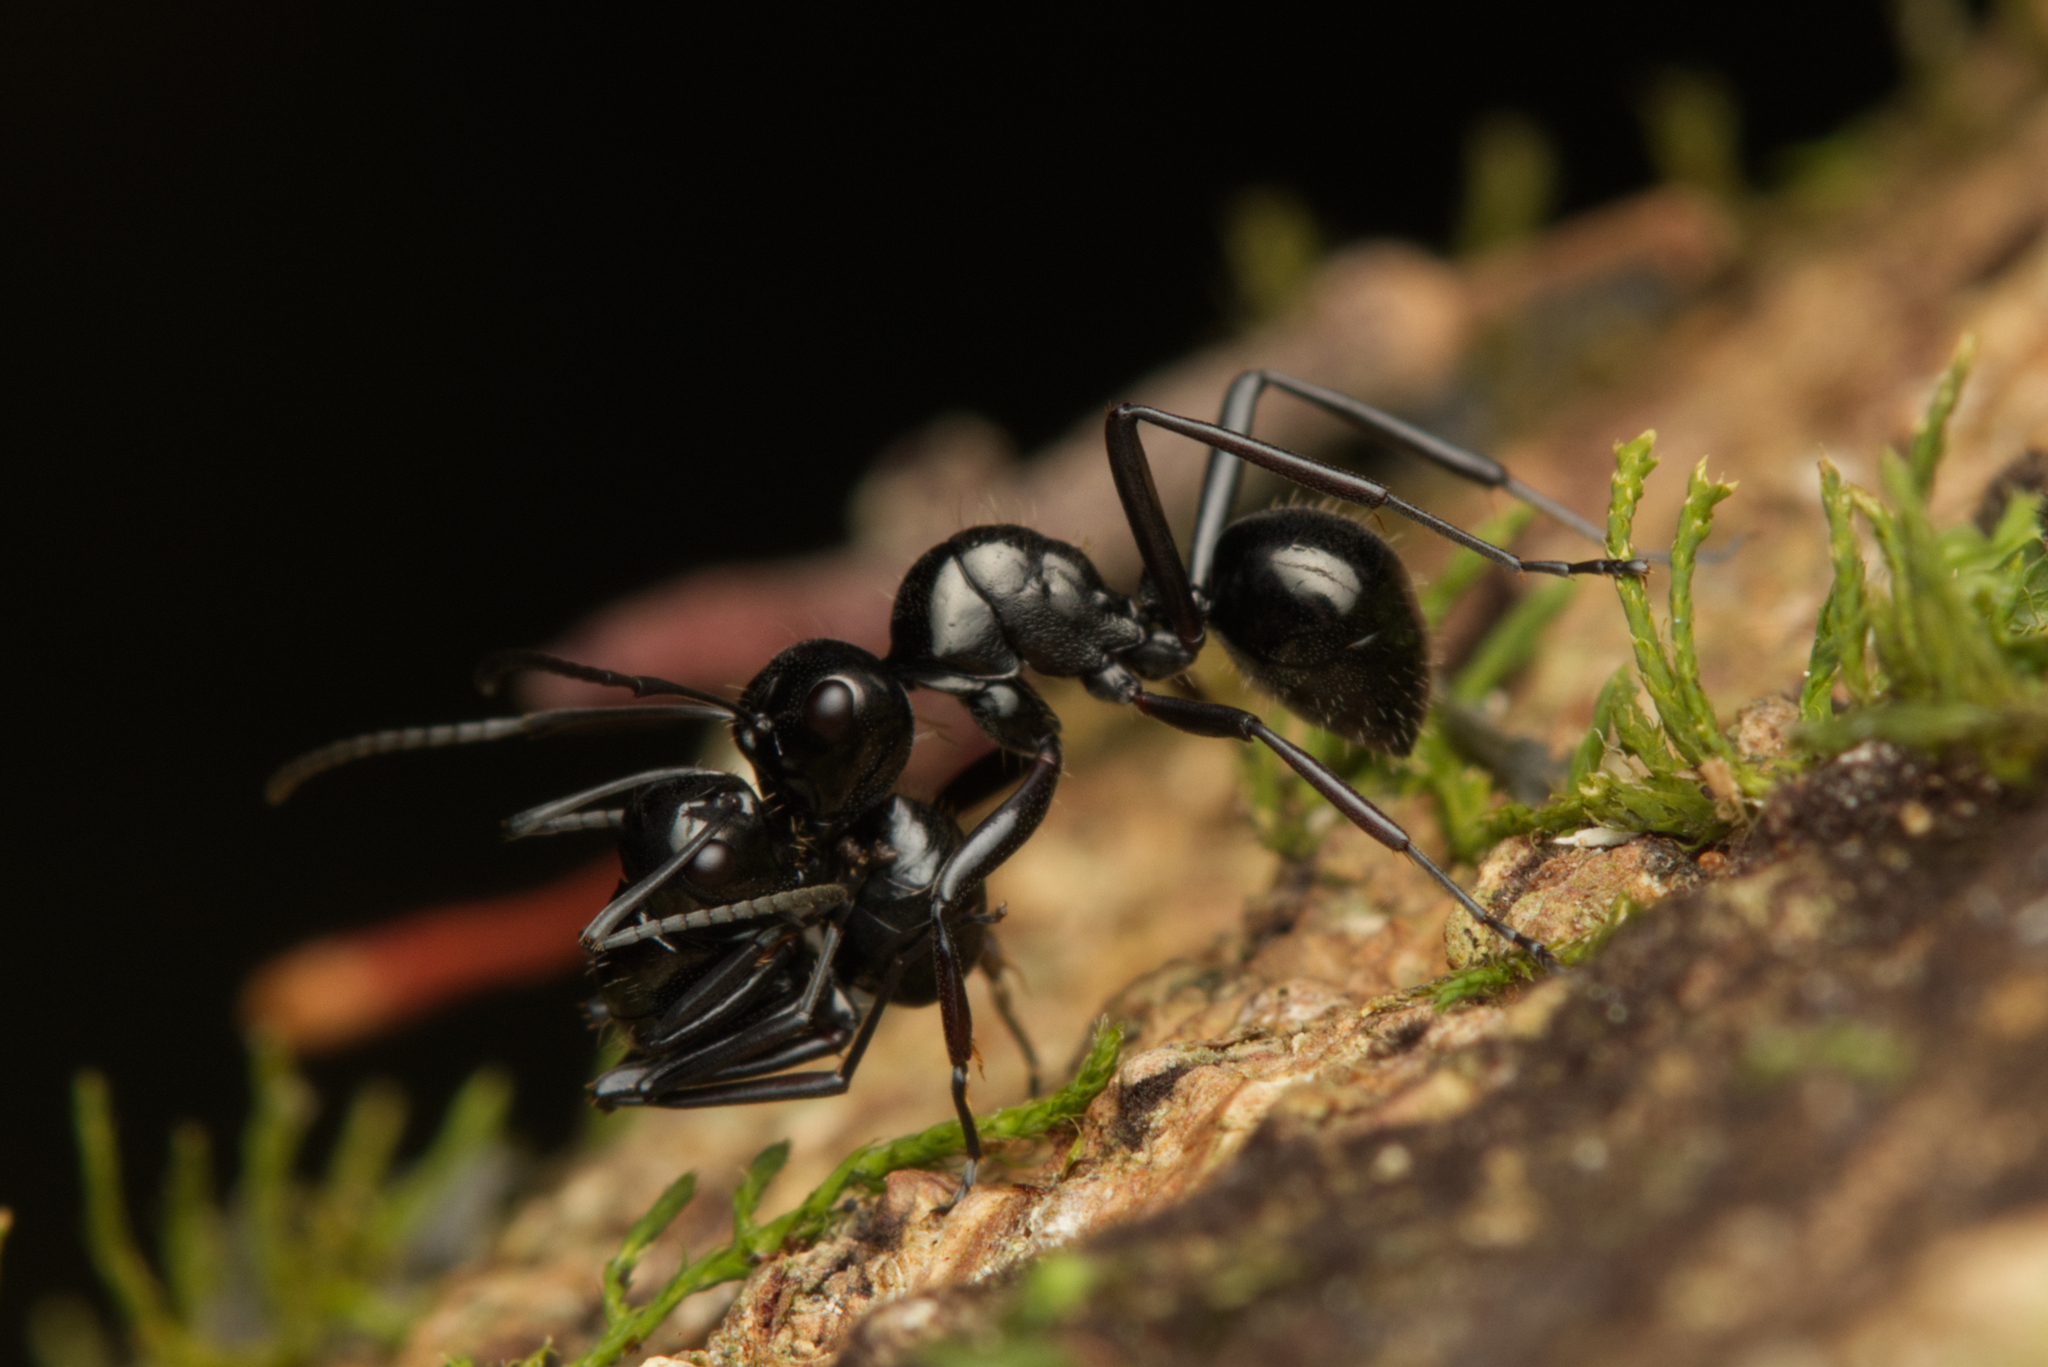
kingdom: Animalia
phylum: Arthropoda
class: Insecta
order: Hymenoptera
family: Formicidae
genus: Polyrhachis
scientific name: Polyrhachis pilosa
